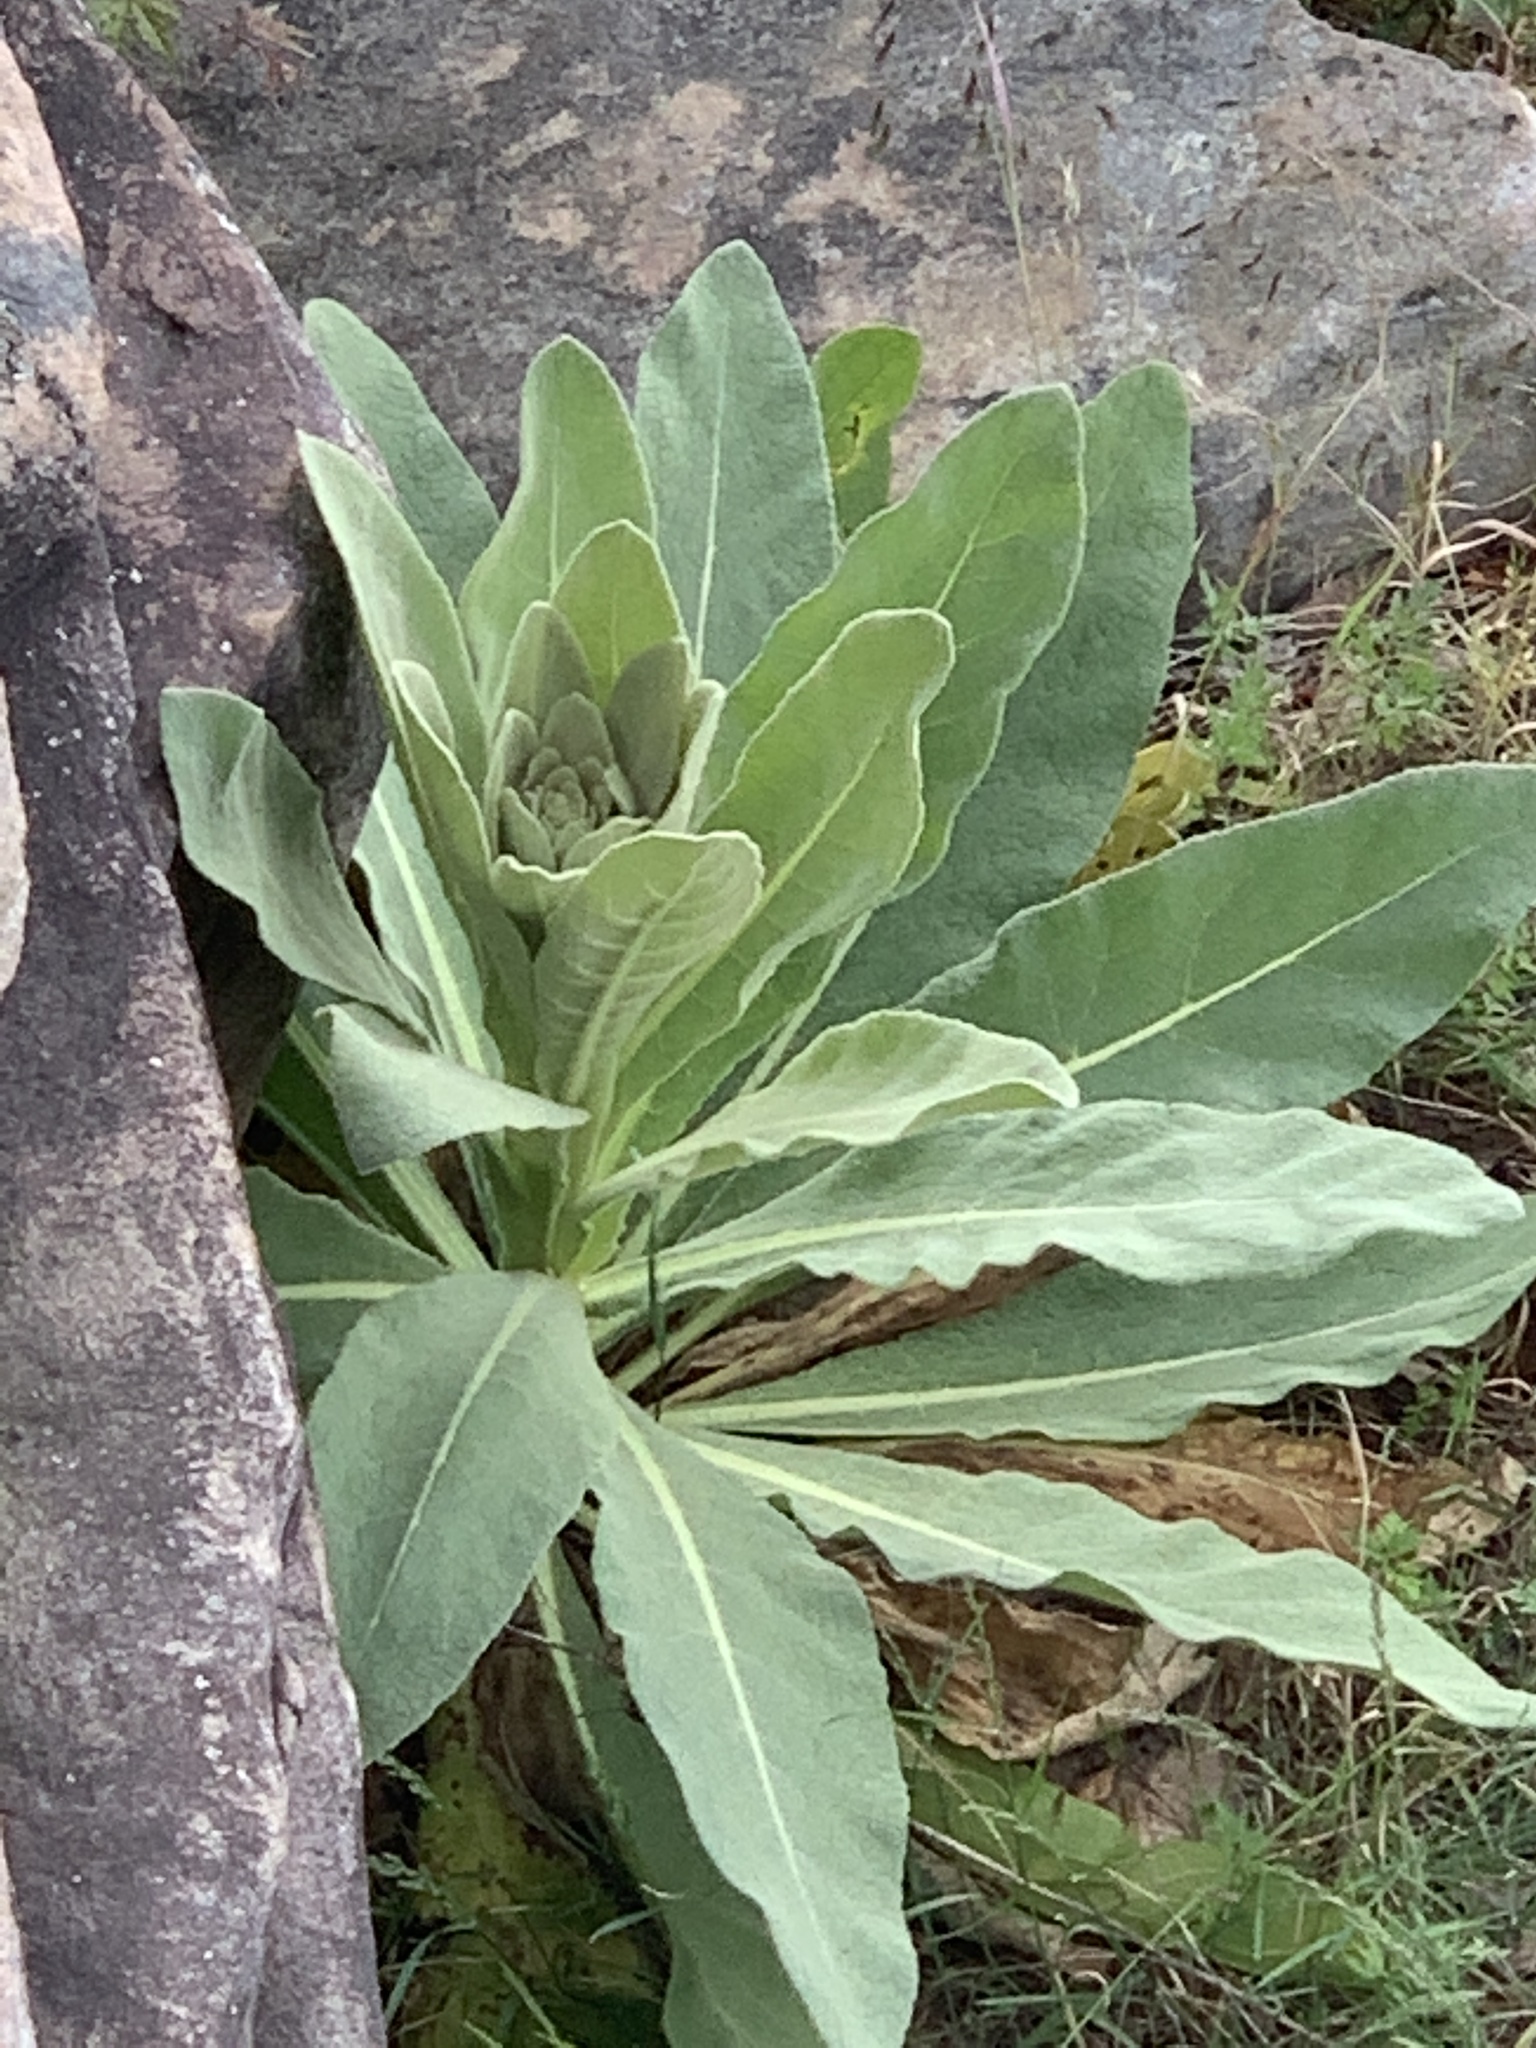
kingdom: Plantae
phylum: Tracheophyta
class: Magnoliopsida
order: Lamiales
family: Scrophulariaceae
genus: Verbascum
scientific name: Verbascum thapsus
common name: Common mullein
